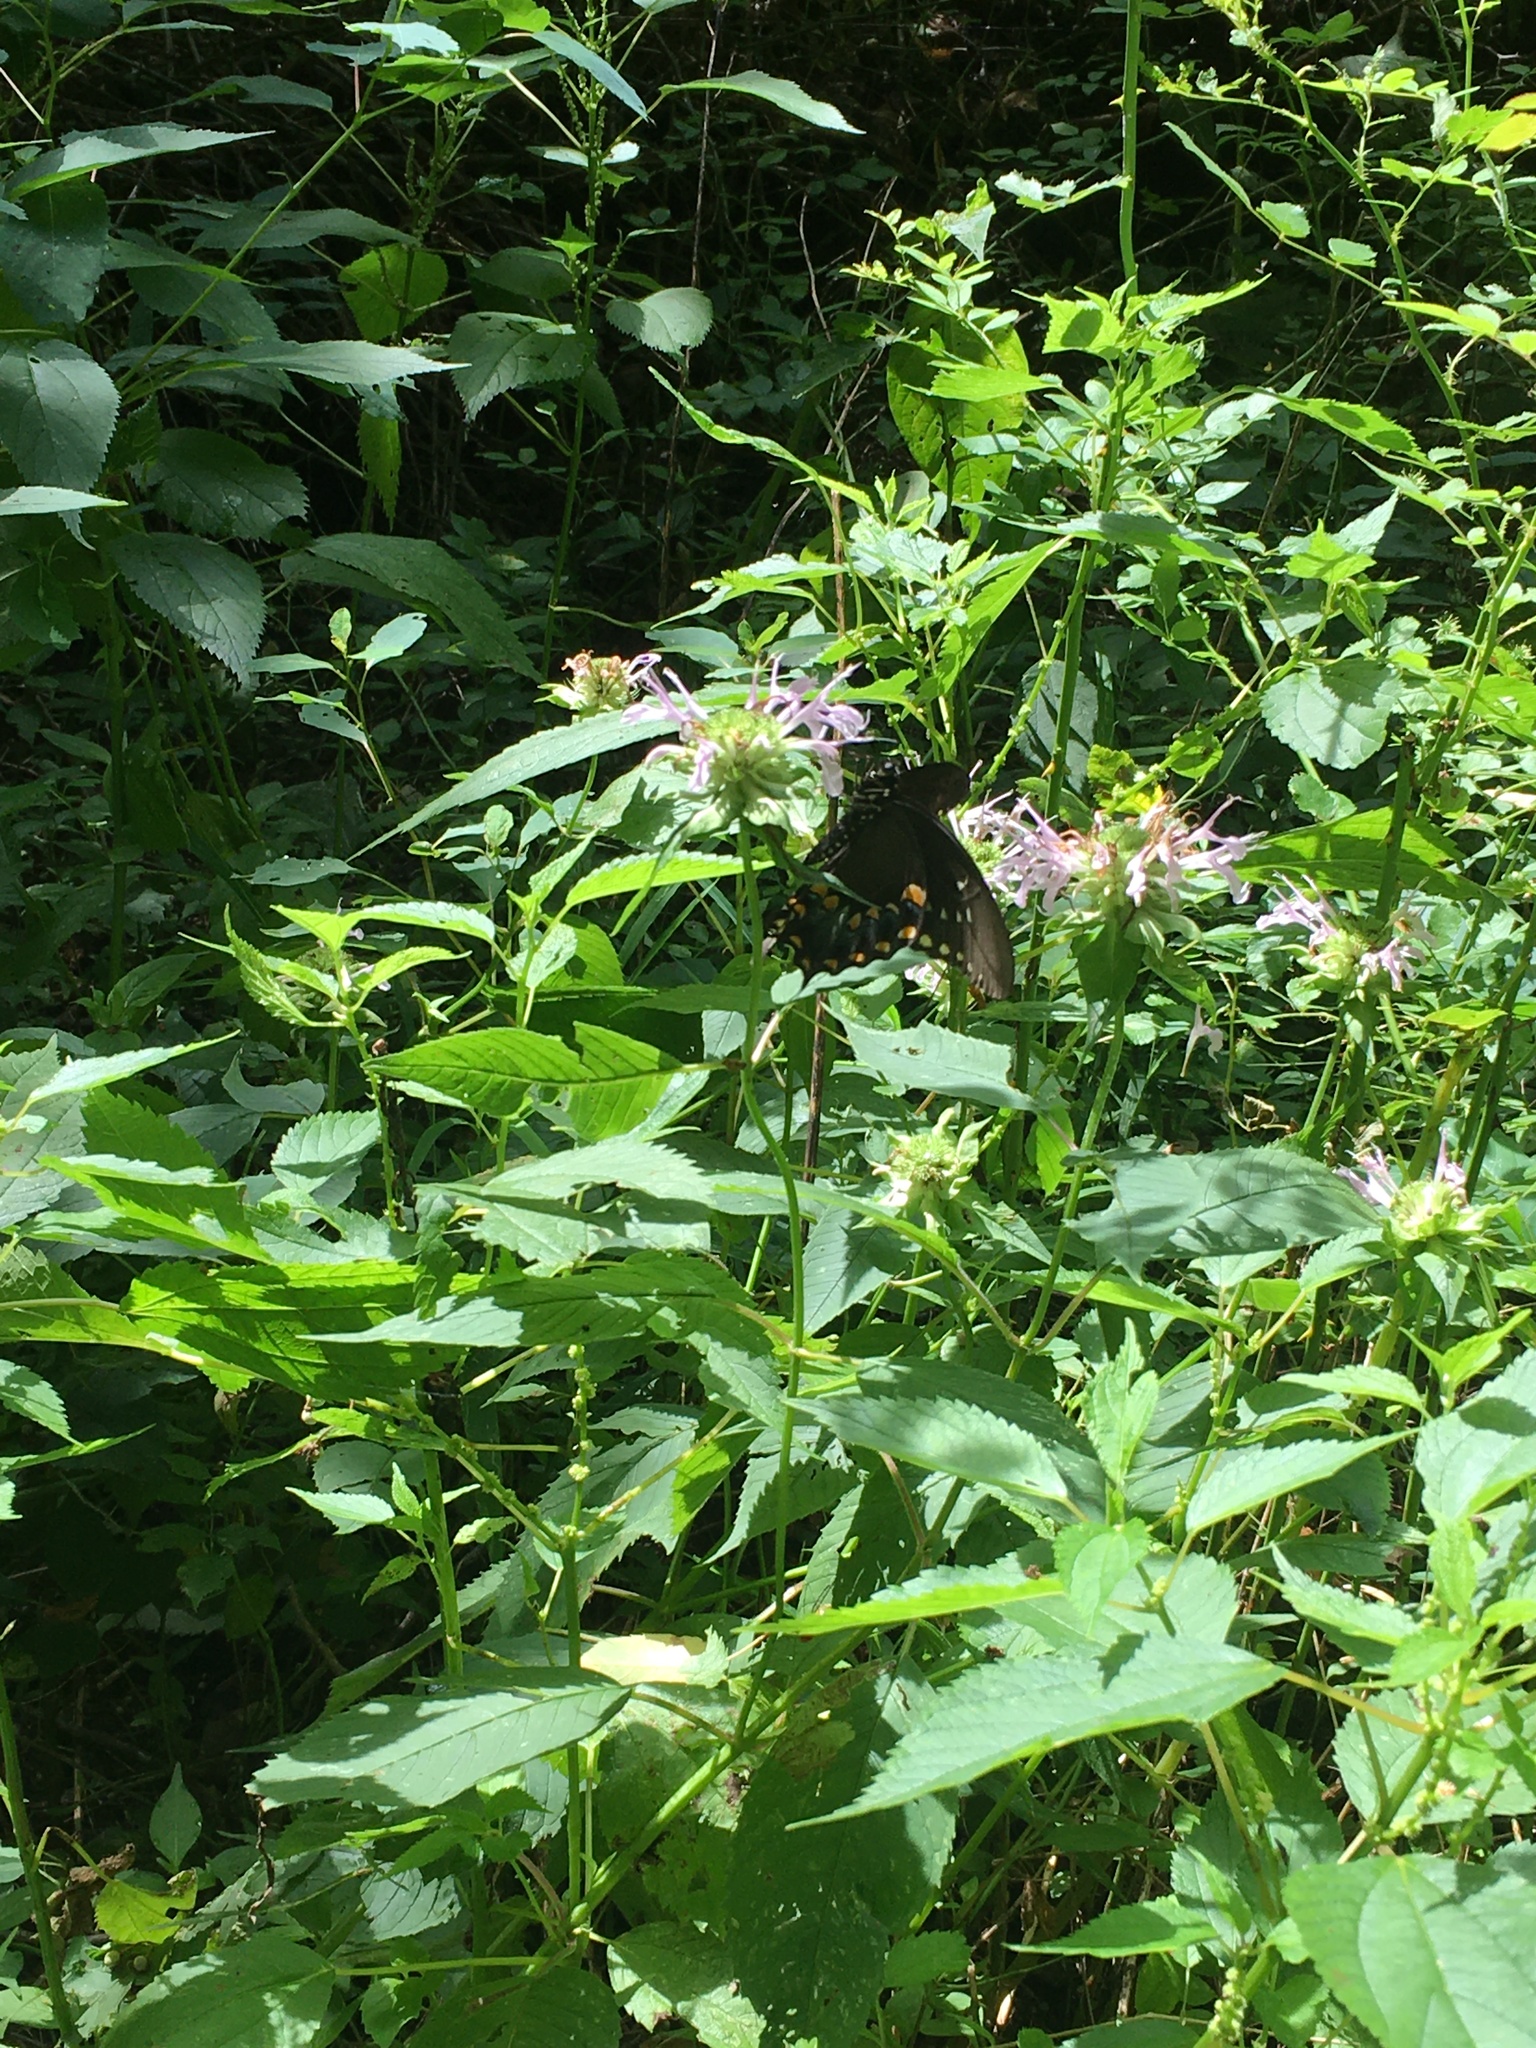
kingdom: Plantae
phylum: Tracheophyta
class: Magnoliopsida
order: Lamiales
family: Lamiaceae
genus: Monarda
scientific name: Monarda fistulosa
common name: Purple beebalm
